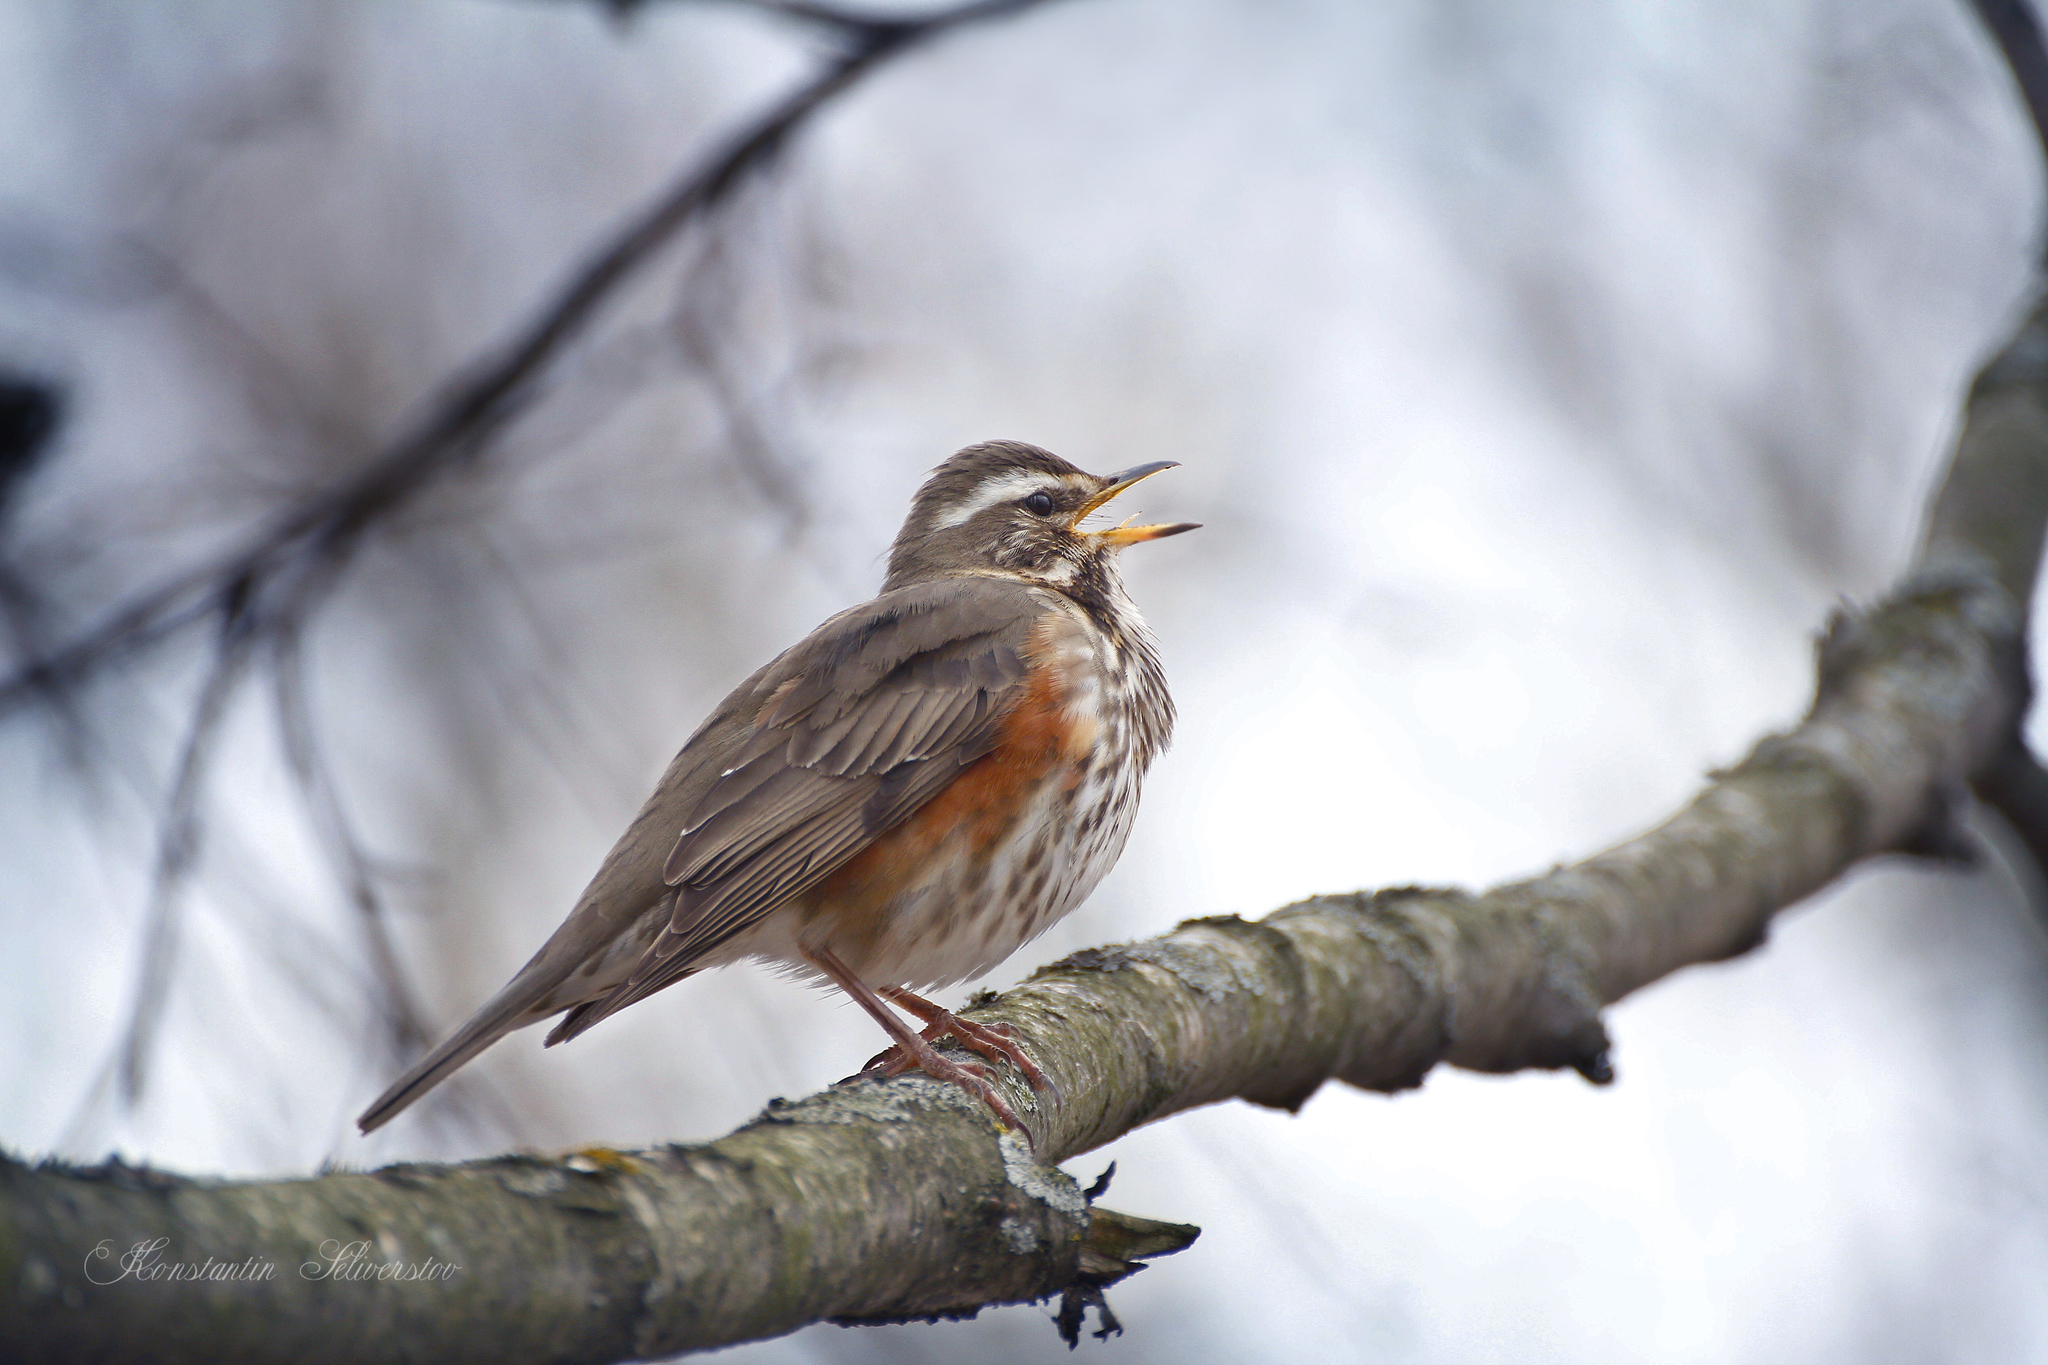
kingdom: Animalia
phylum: Chordata
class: Aves
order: Passeriformes
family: Turdidae
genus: Turdus
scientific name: Turdus iliacus
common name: Redwing
